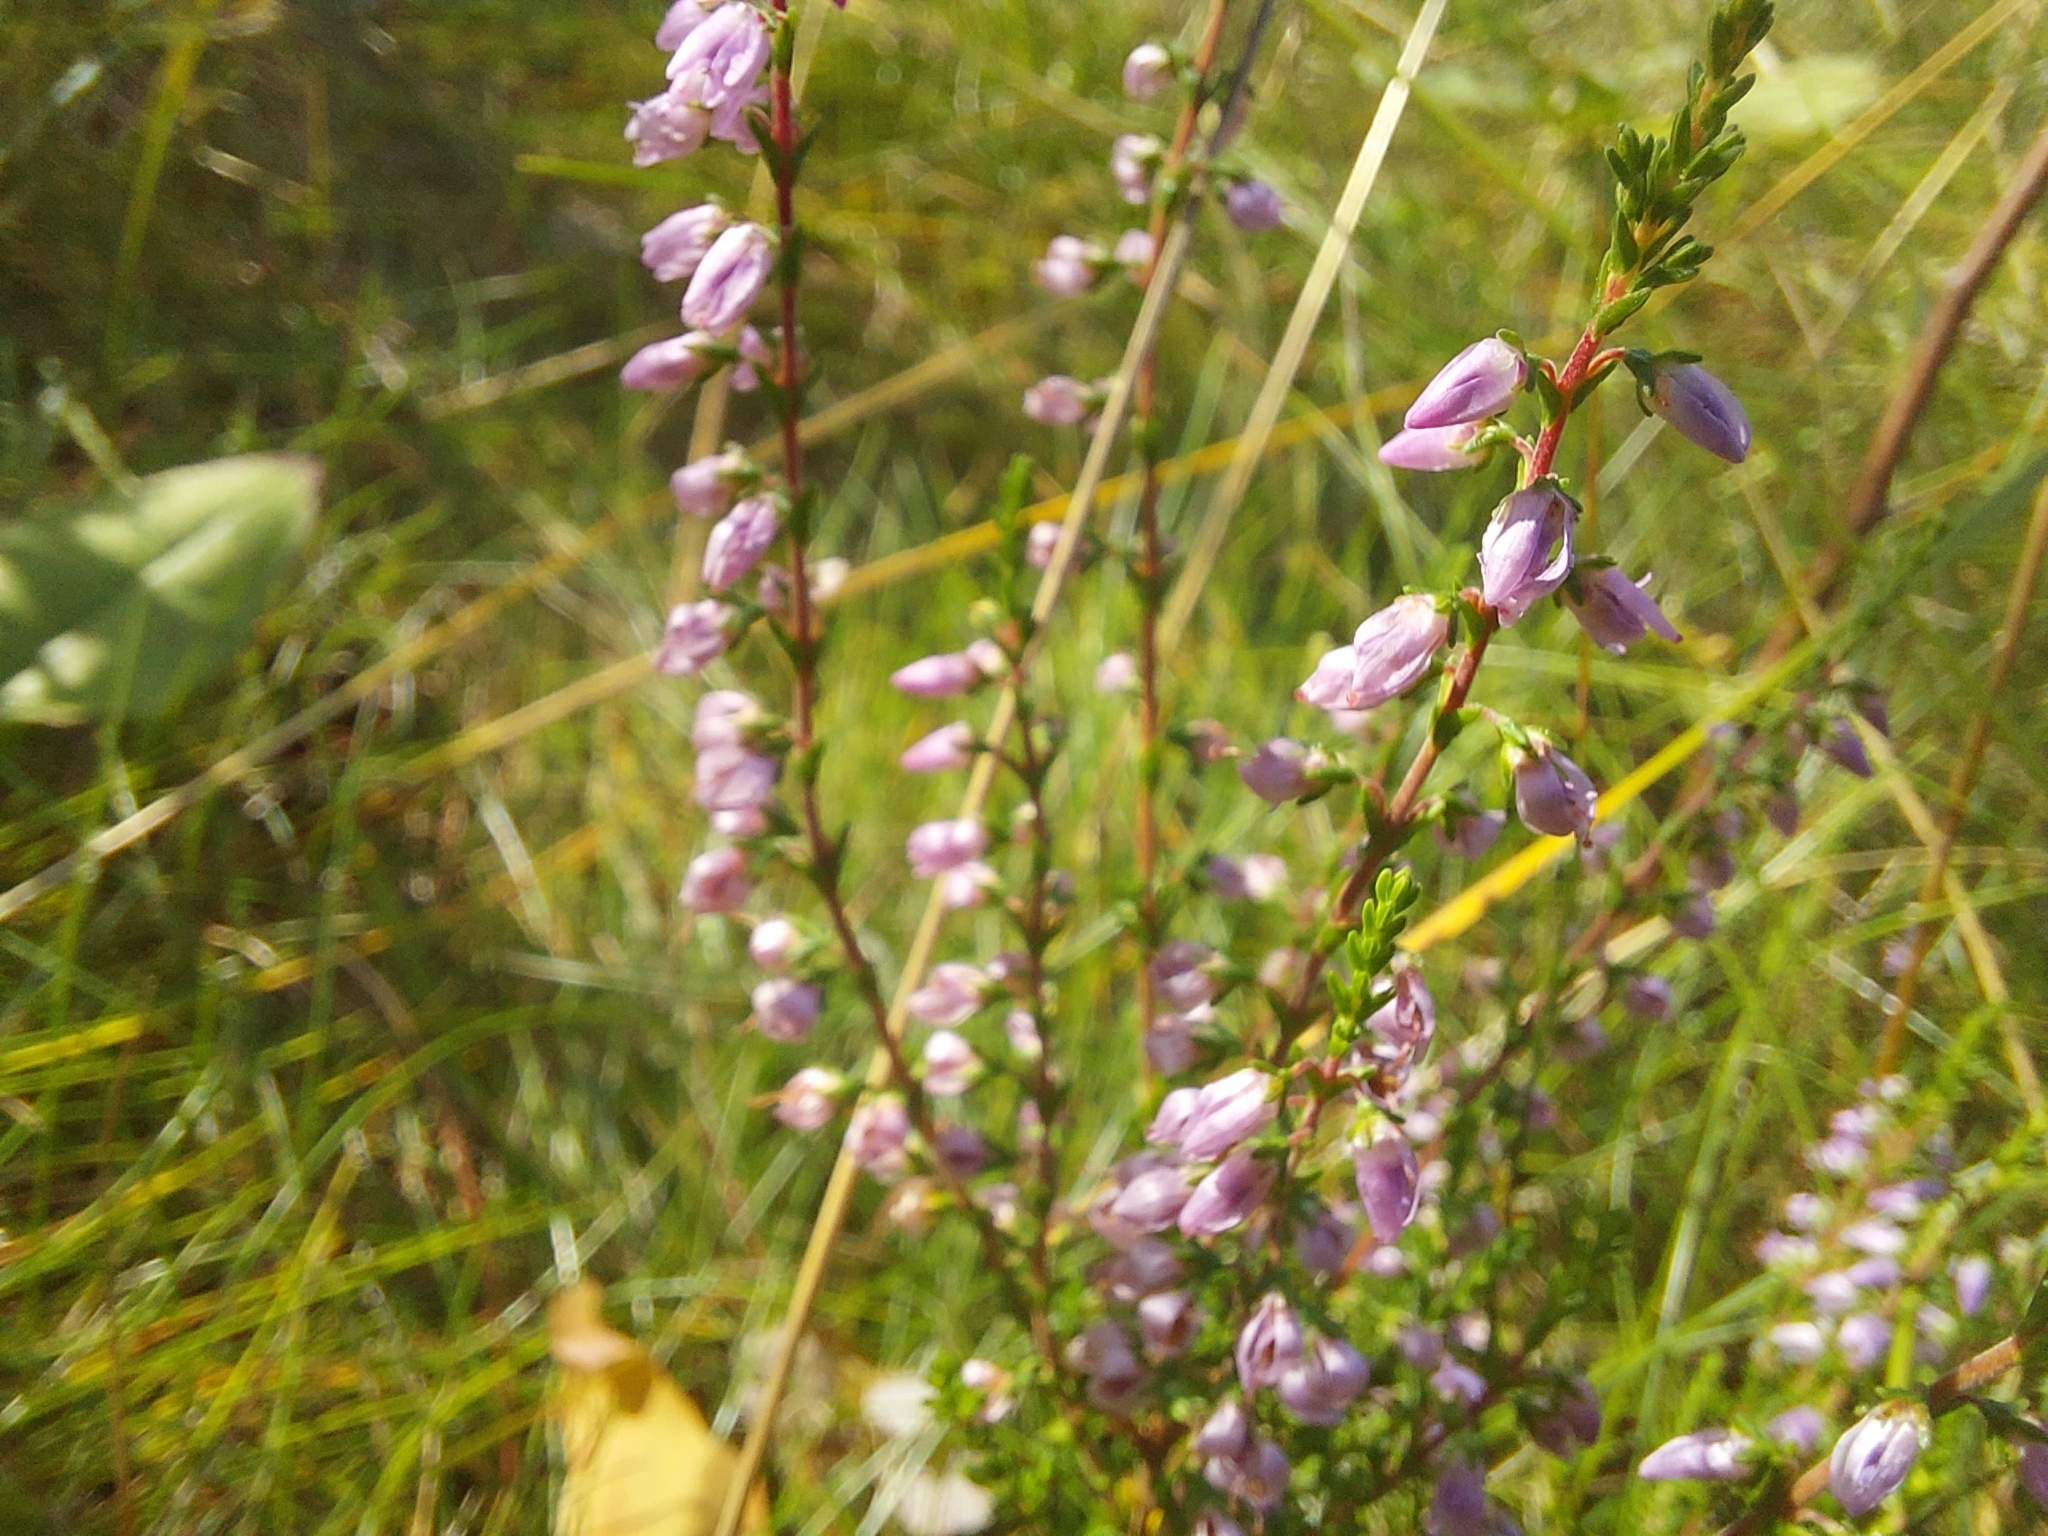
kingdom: Plantae
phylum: Tracheophyta
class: Magnoliopsida
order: Ericales
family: Ericaceae
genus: Calluna
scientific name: Calluna vulgaris
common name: Heather
